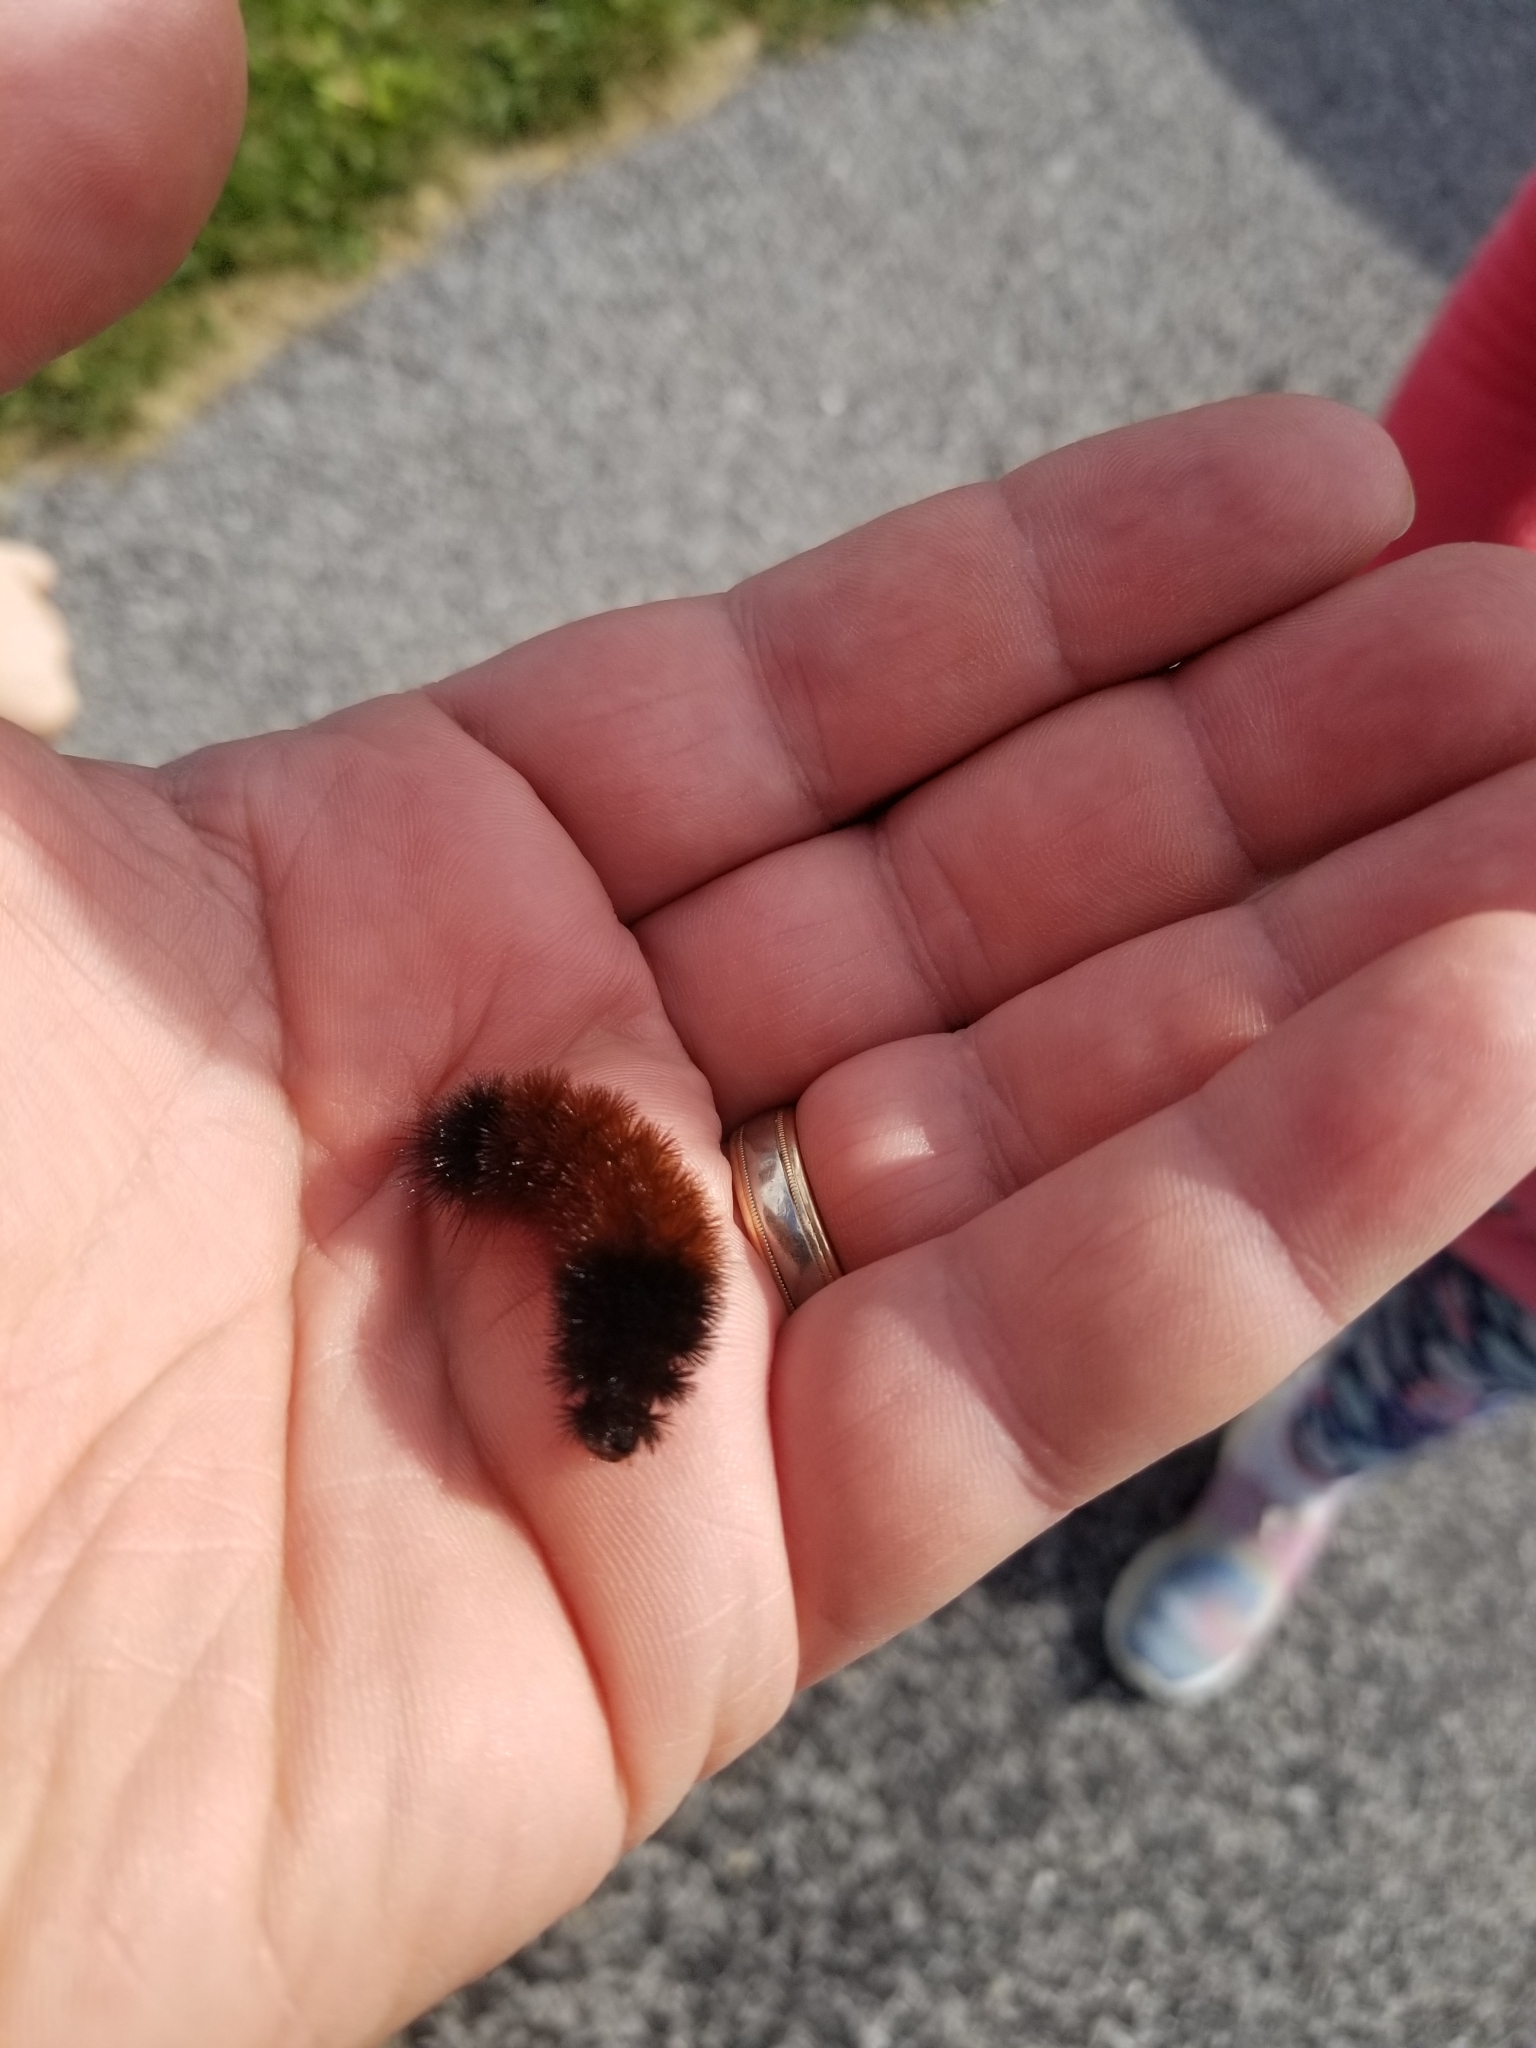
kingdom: Animalia
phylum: Arthropoda
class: Insecta
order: Lepidoptera
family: Erebidae
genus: Pyrrharctia
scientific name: Pyrrharctia isabella
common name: Isabella tiger moth
